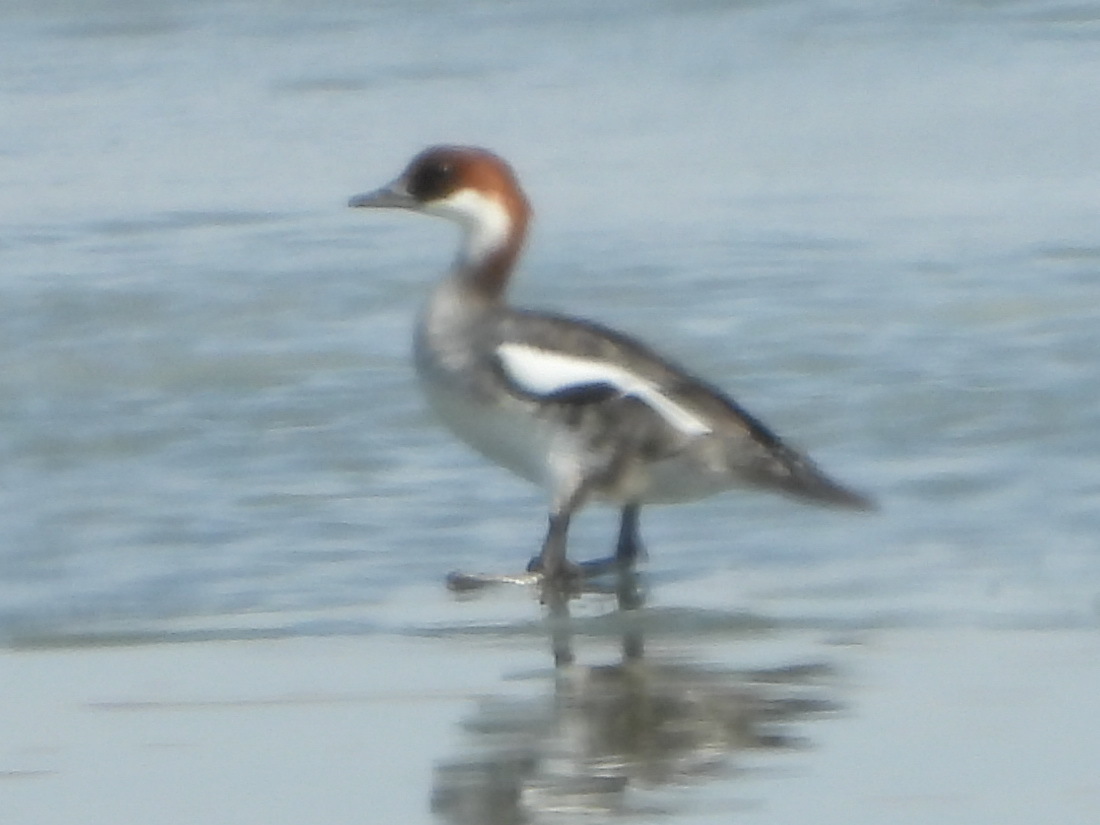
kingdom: Animalia
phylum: Chordata
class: Aves
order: Anseriformes
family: Anatidae
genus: Mergellus
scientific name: Mergellus albellus
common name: Smew
